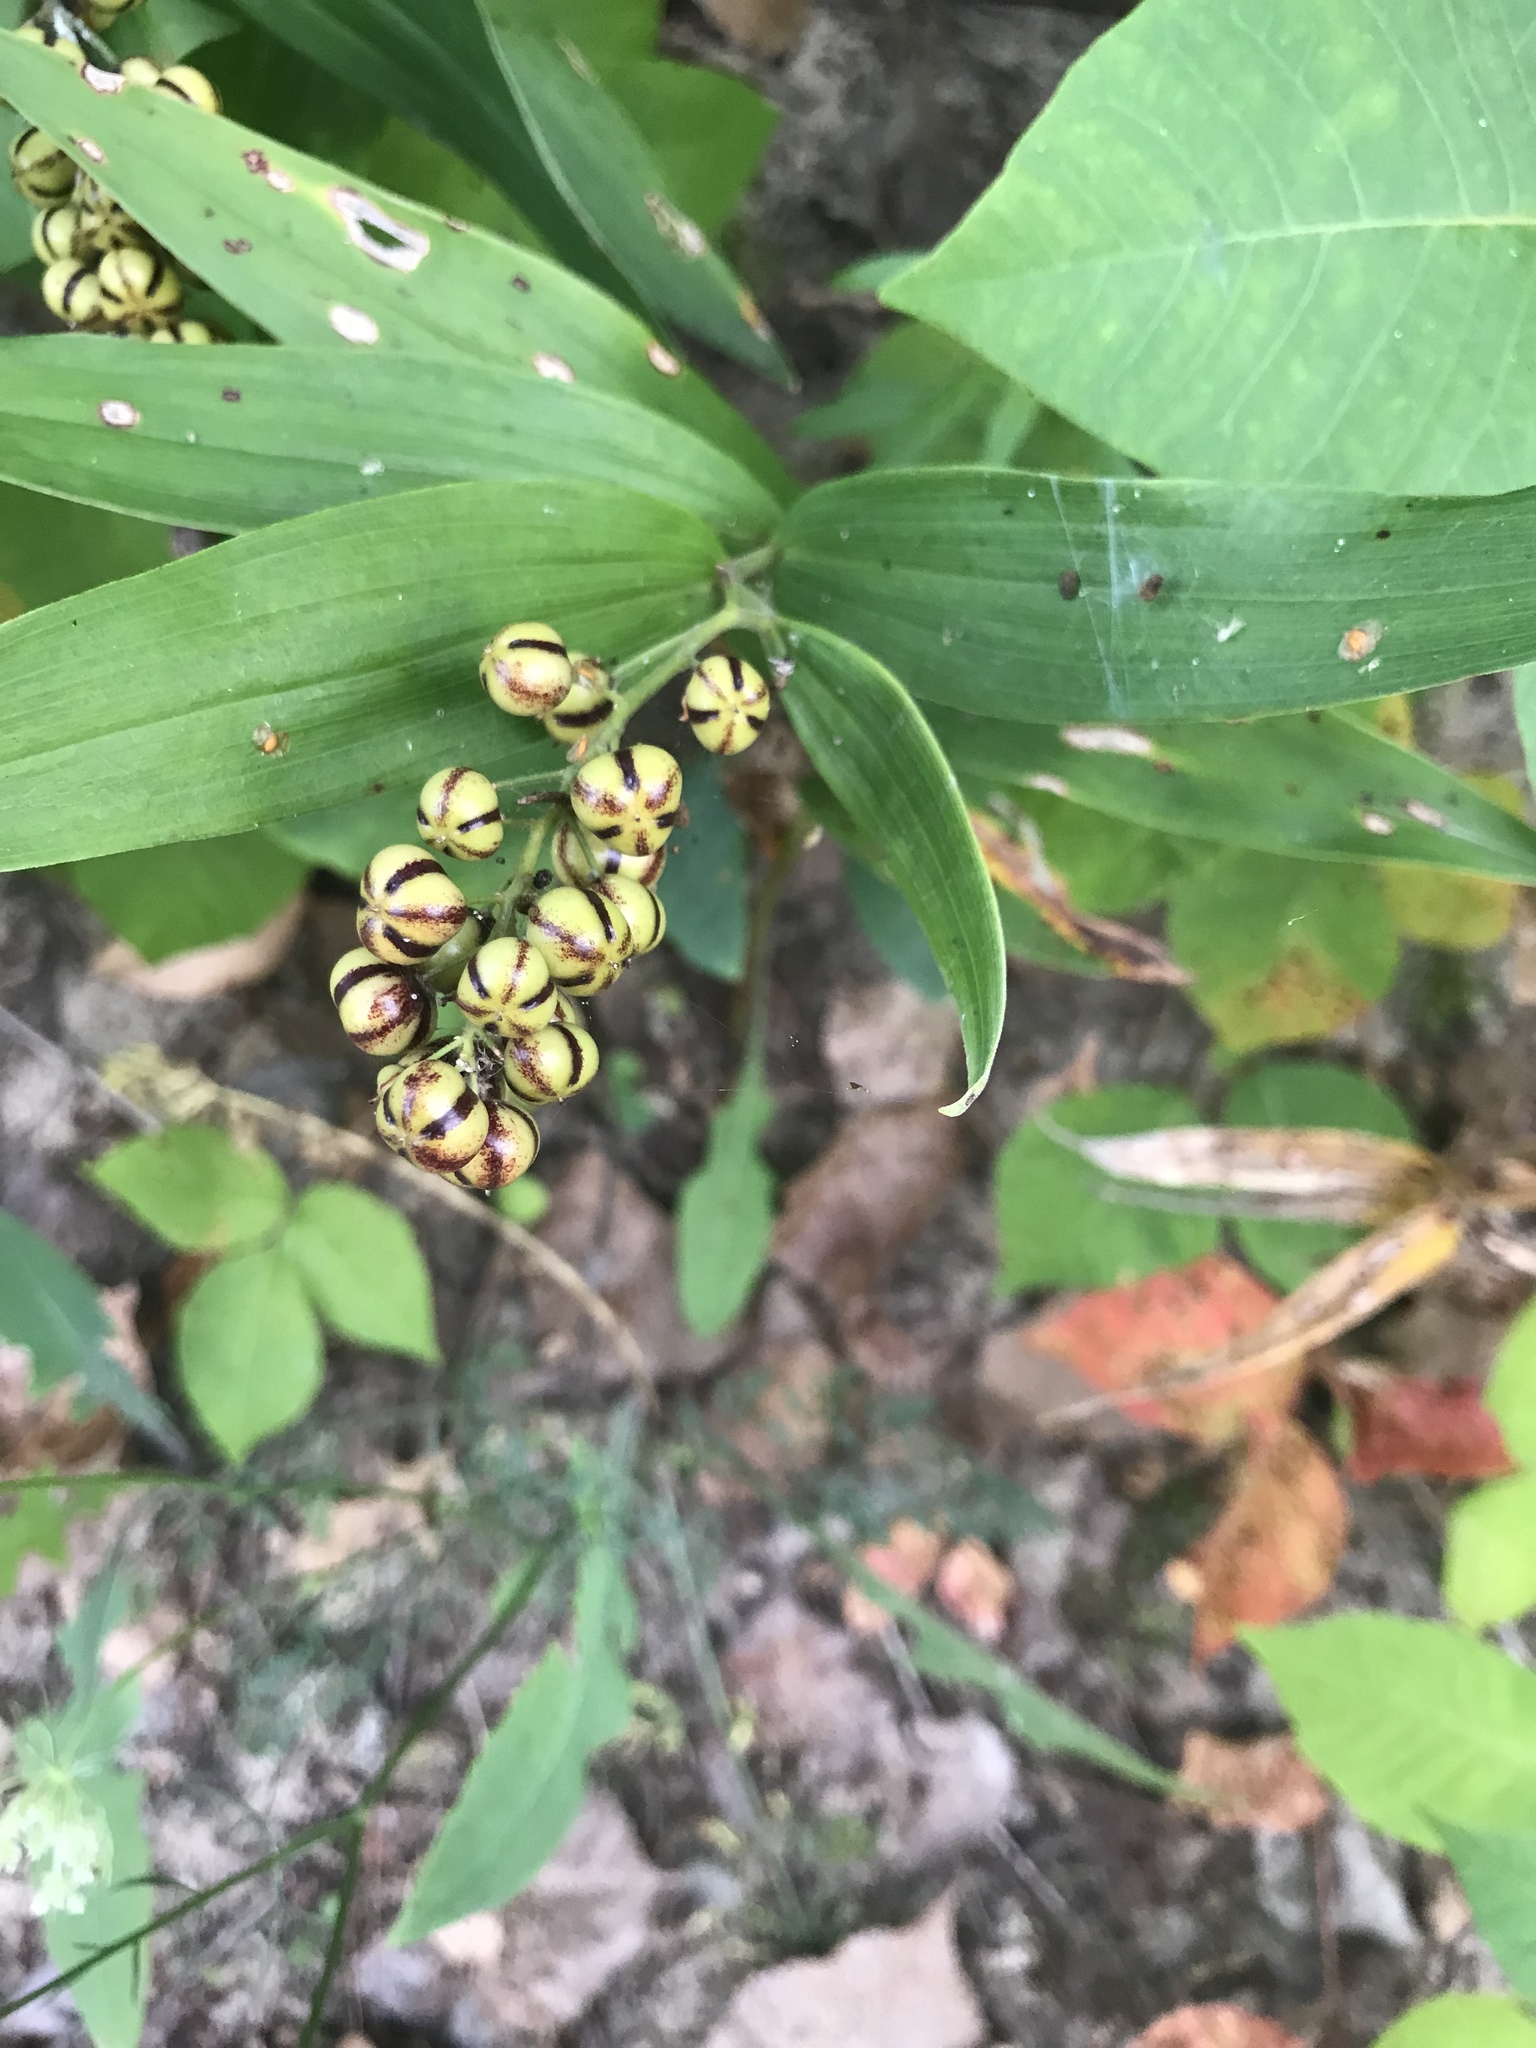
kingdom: Plantae
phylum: Tracheophyta
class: Liliopsida
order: Asparagales
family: Asparagaceae
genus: Maianthemum
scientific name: Maianthemum stellatum
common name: Little false solomon's seal
